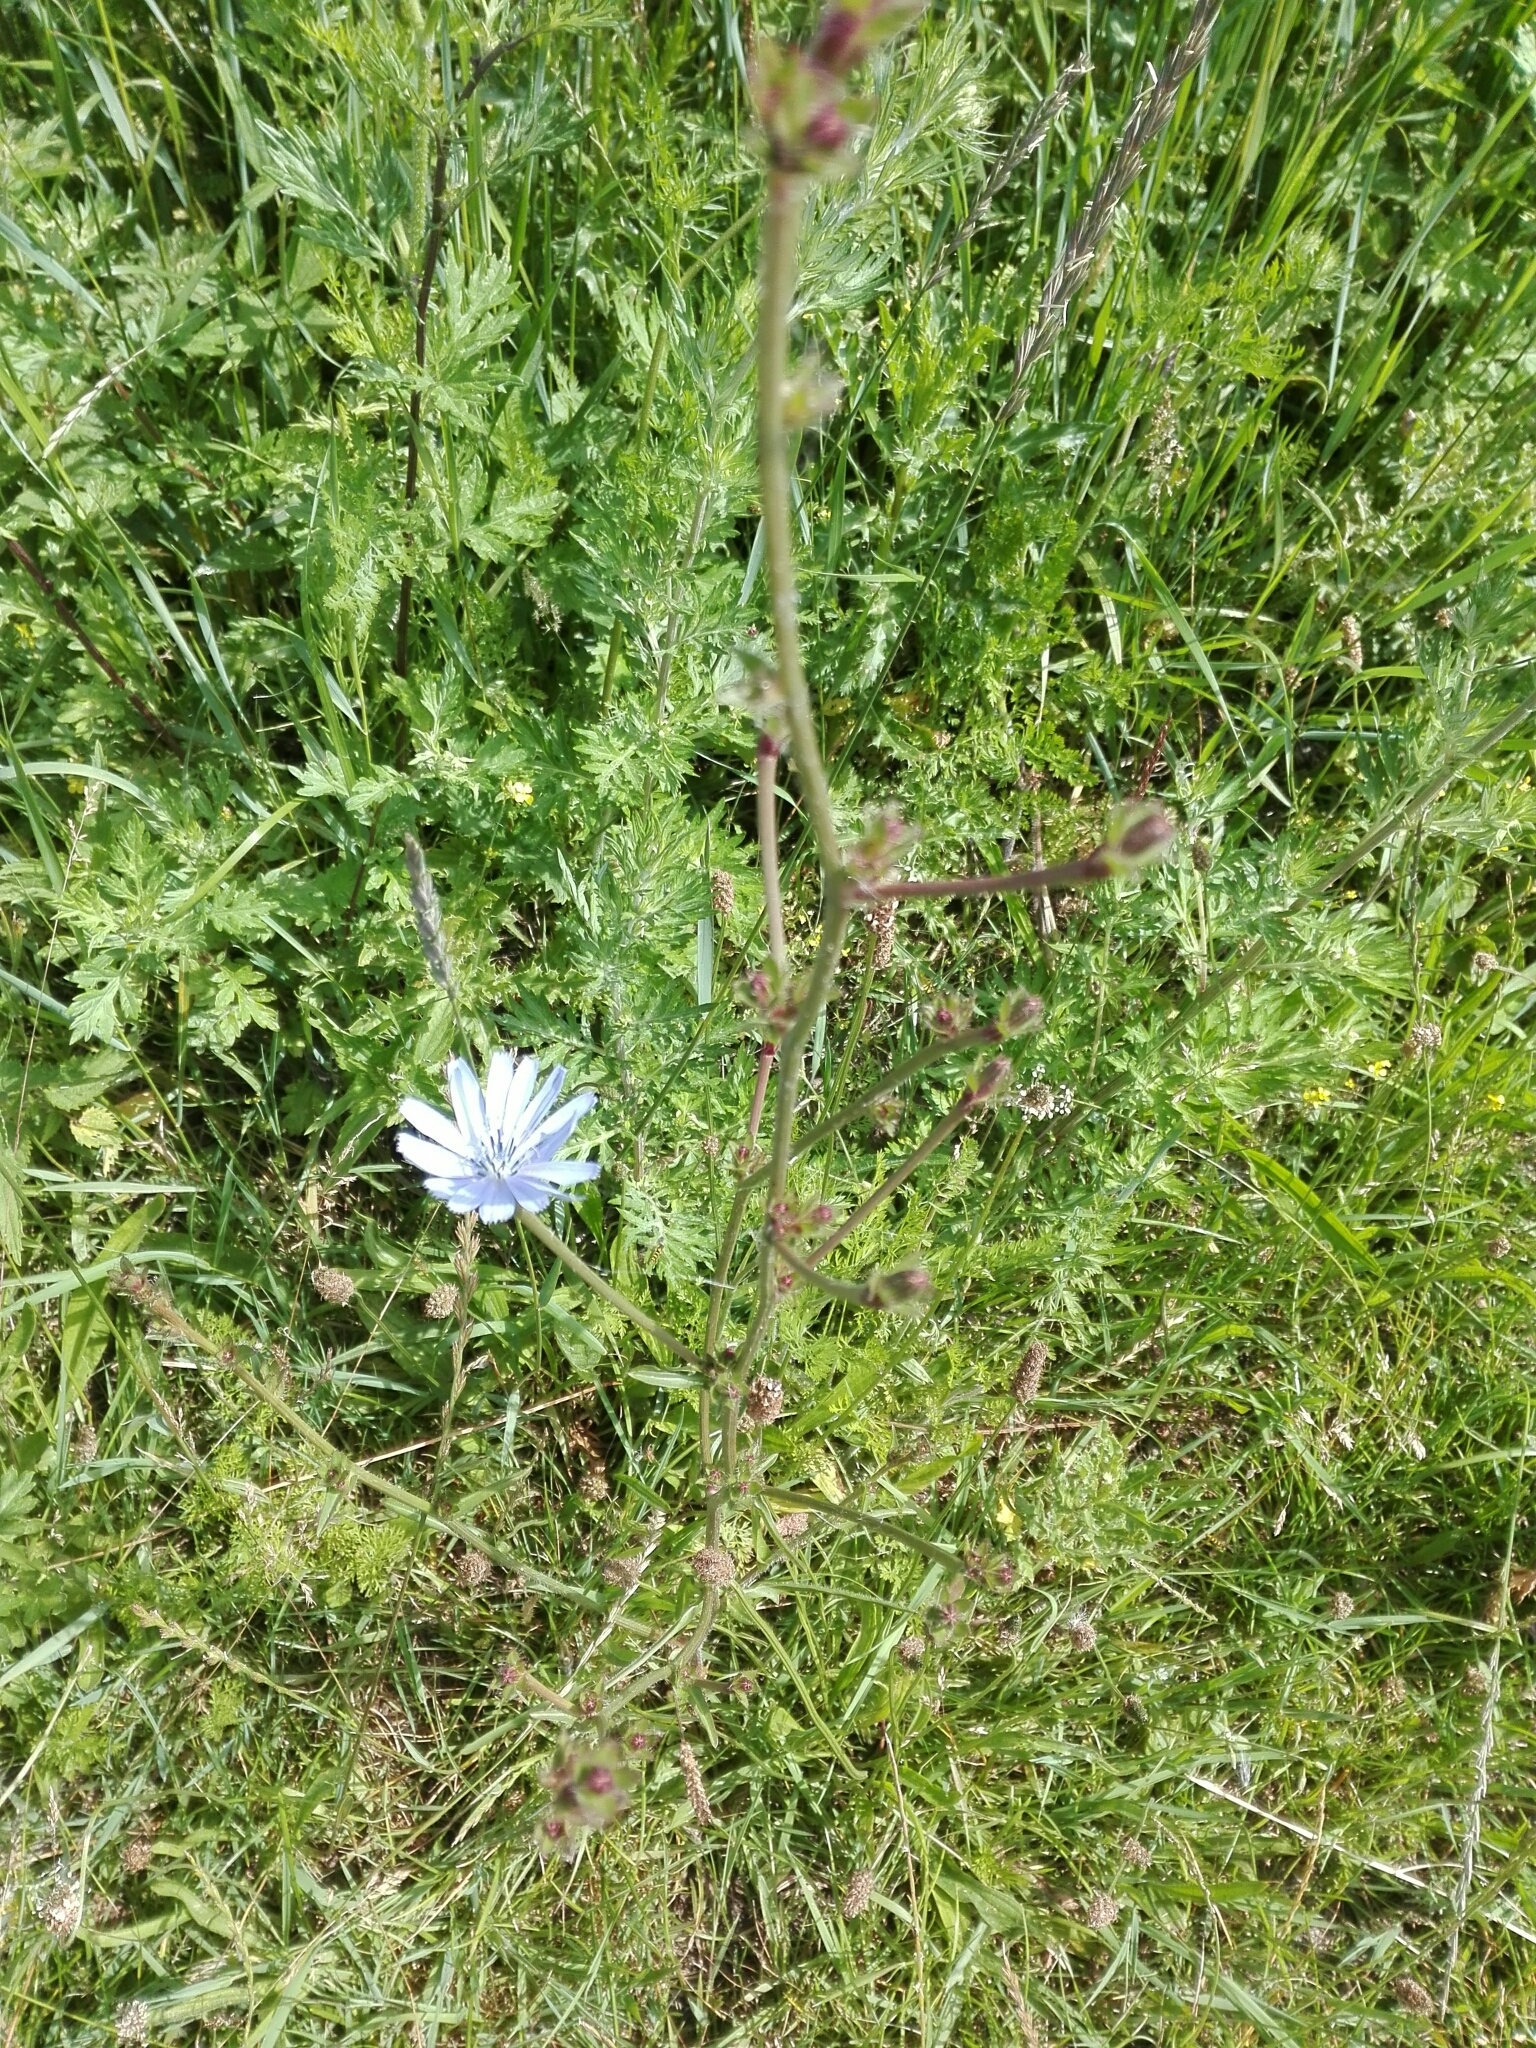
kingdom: Plantae
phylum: Tracheophyta
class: Magnoliopsida
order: Asterales
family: Asteraceae
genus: Cichorium
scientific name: Cichorium intybus
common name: Chicory
